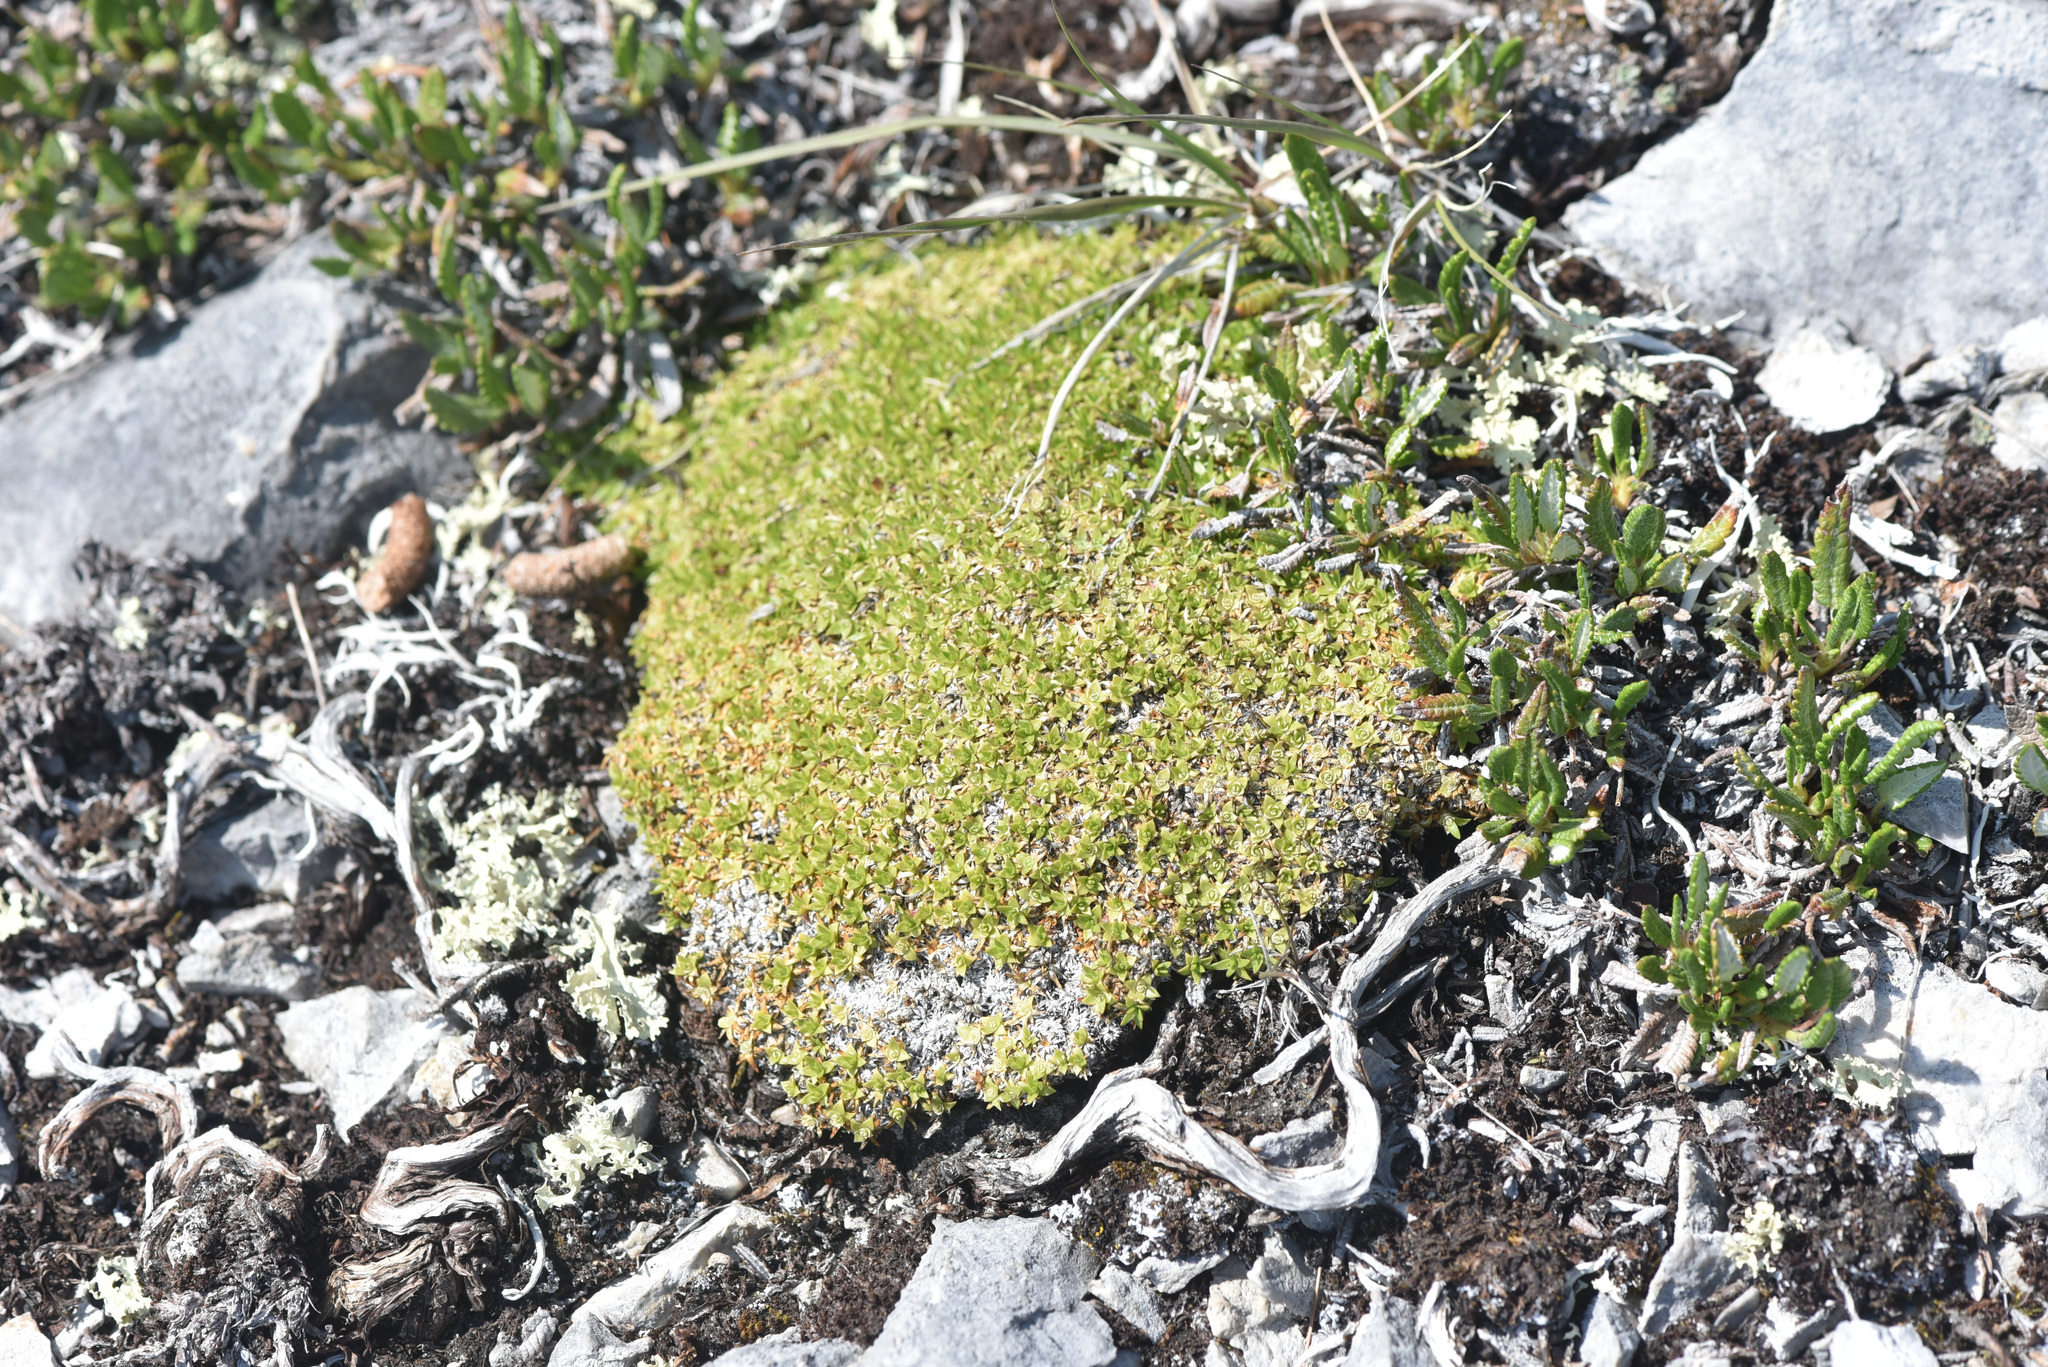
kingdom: Plantae
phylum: Tracheophyta
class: Magnoliopsida
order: Caryophyllales
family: Caryophyllaceae
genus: Silene
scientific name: Silene acaulis
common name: Moss campion
